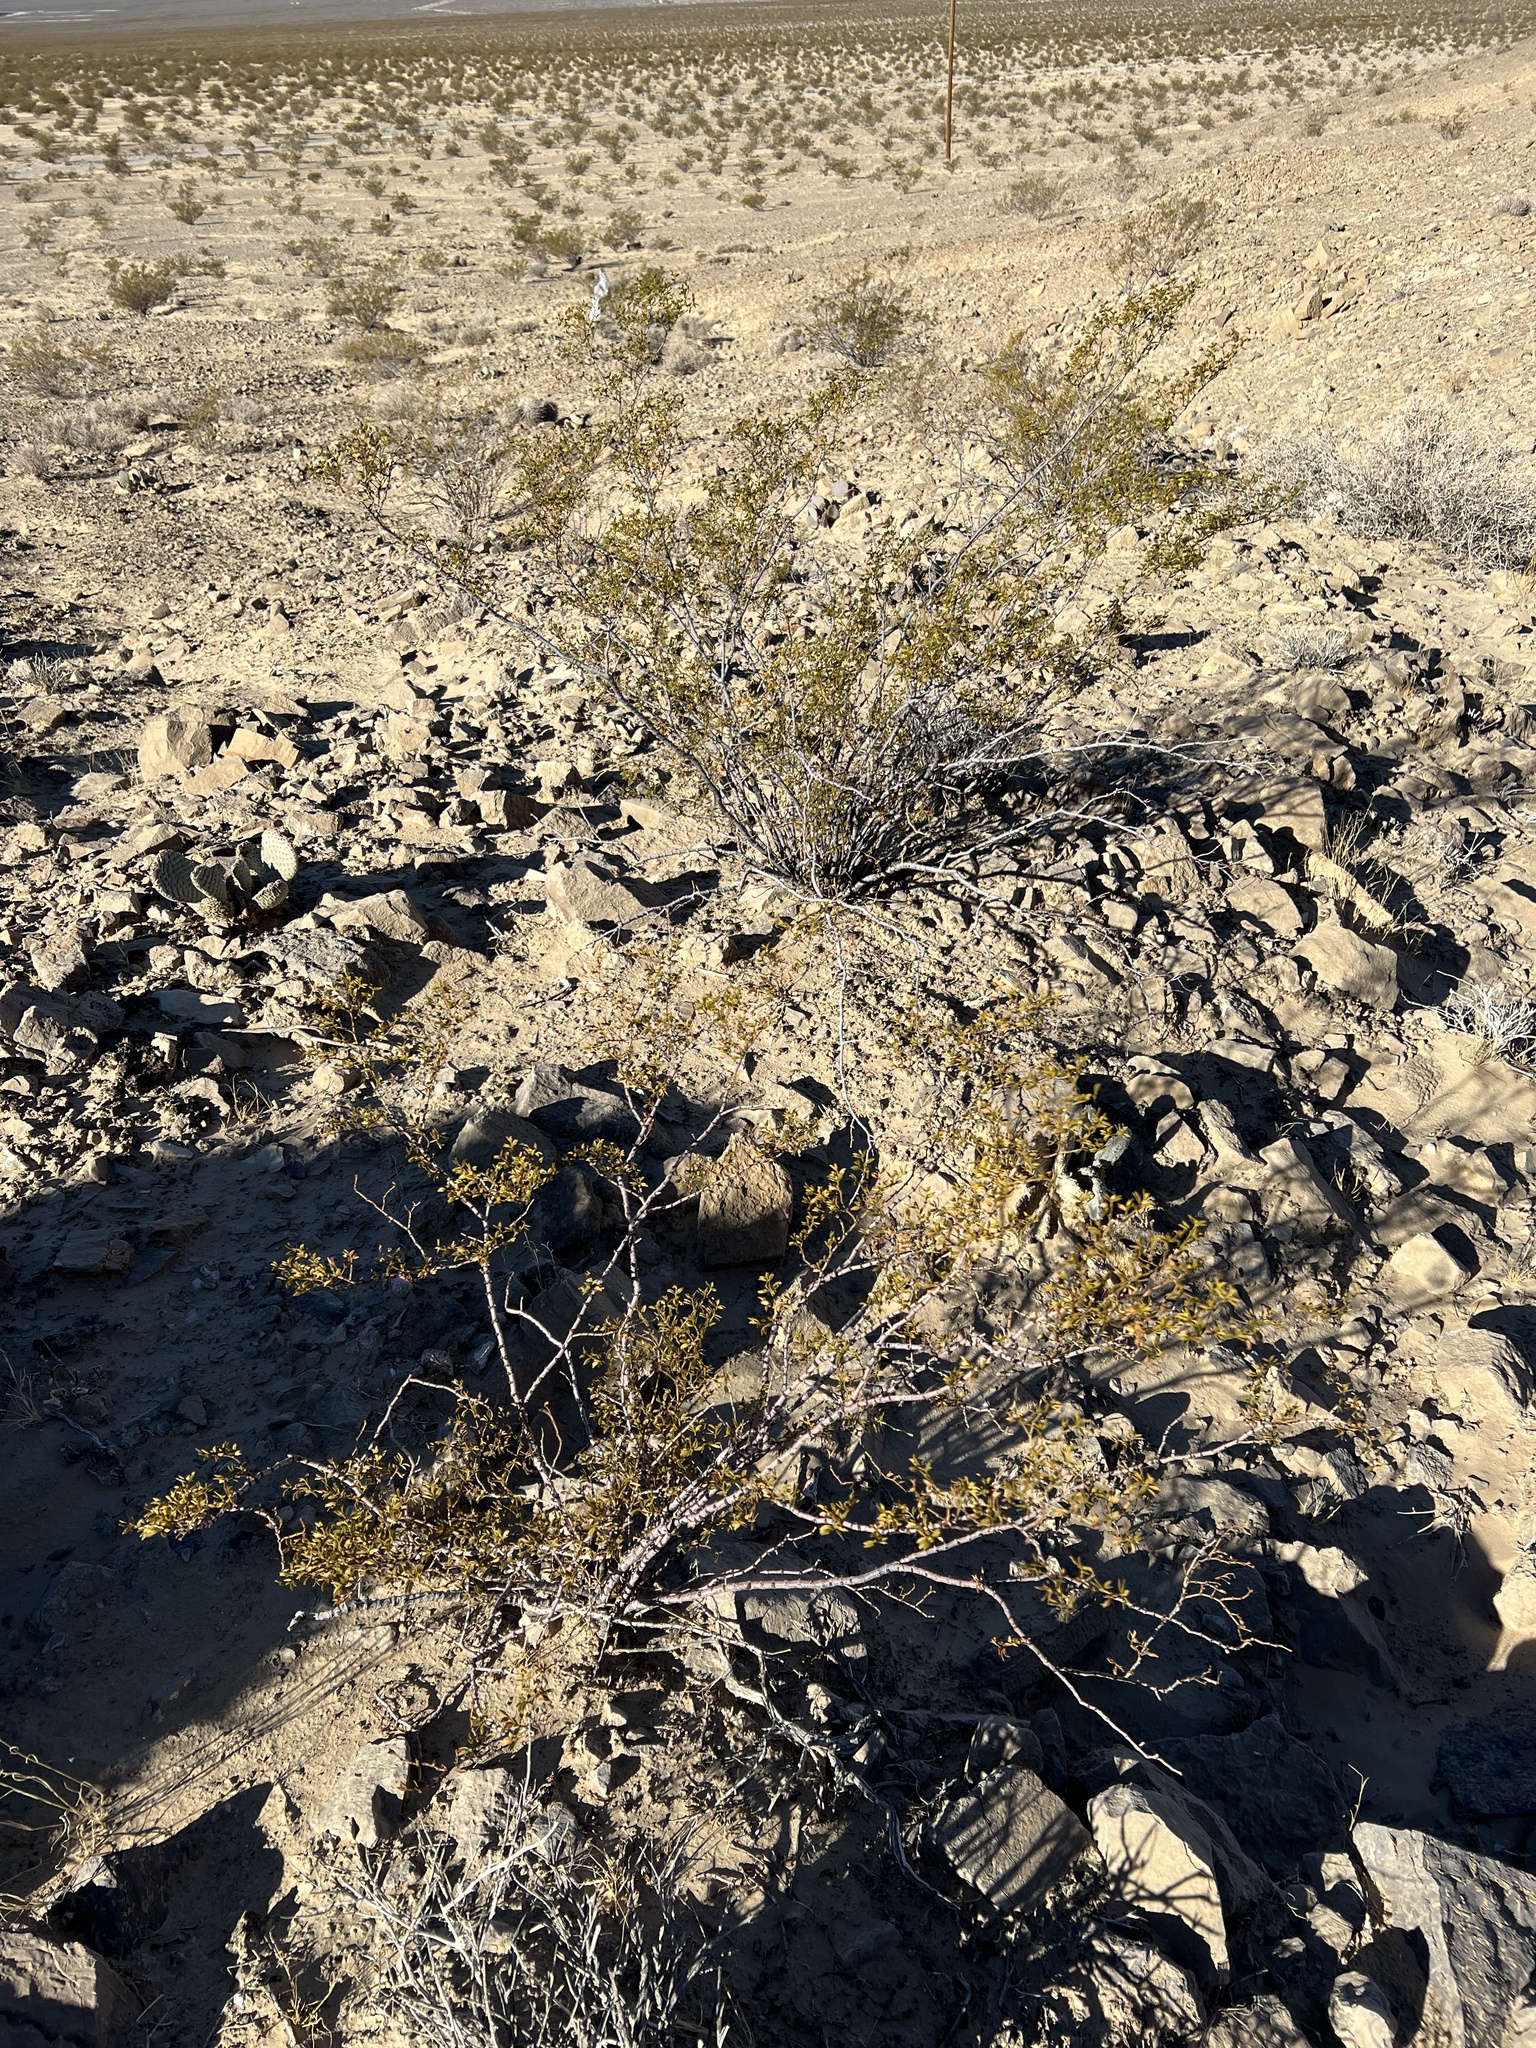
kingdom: Plantae
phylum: Tracheophyta
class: Magnoliopsida
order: Zygophyllales
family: Zygophyllaceae
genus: Larrea
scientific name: Larrea tridentata
